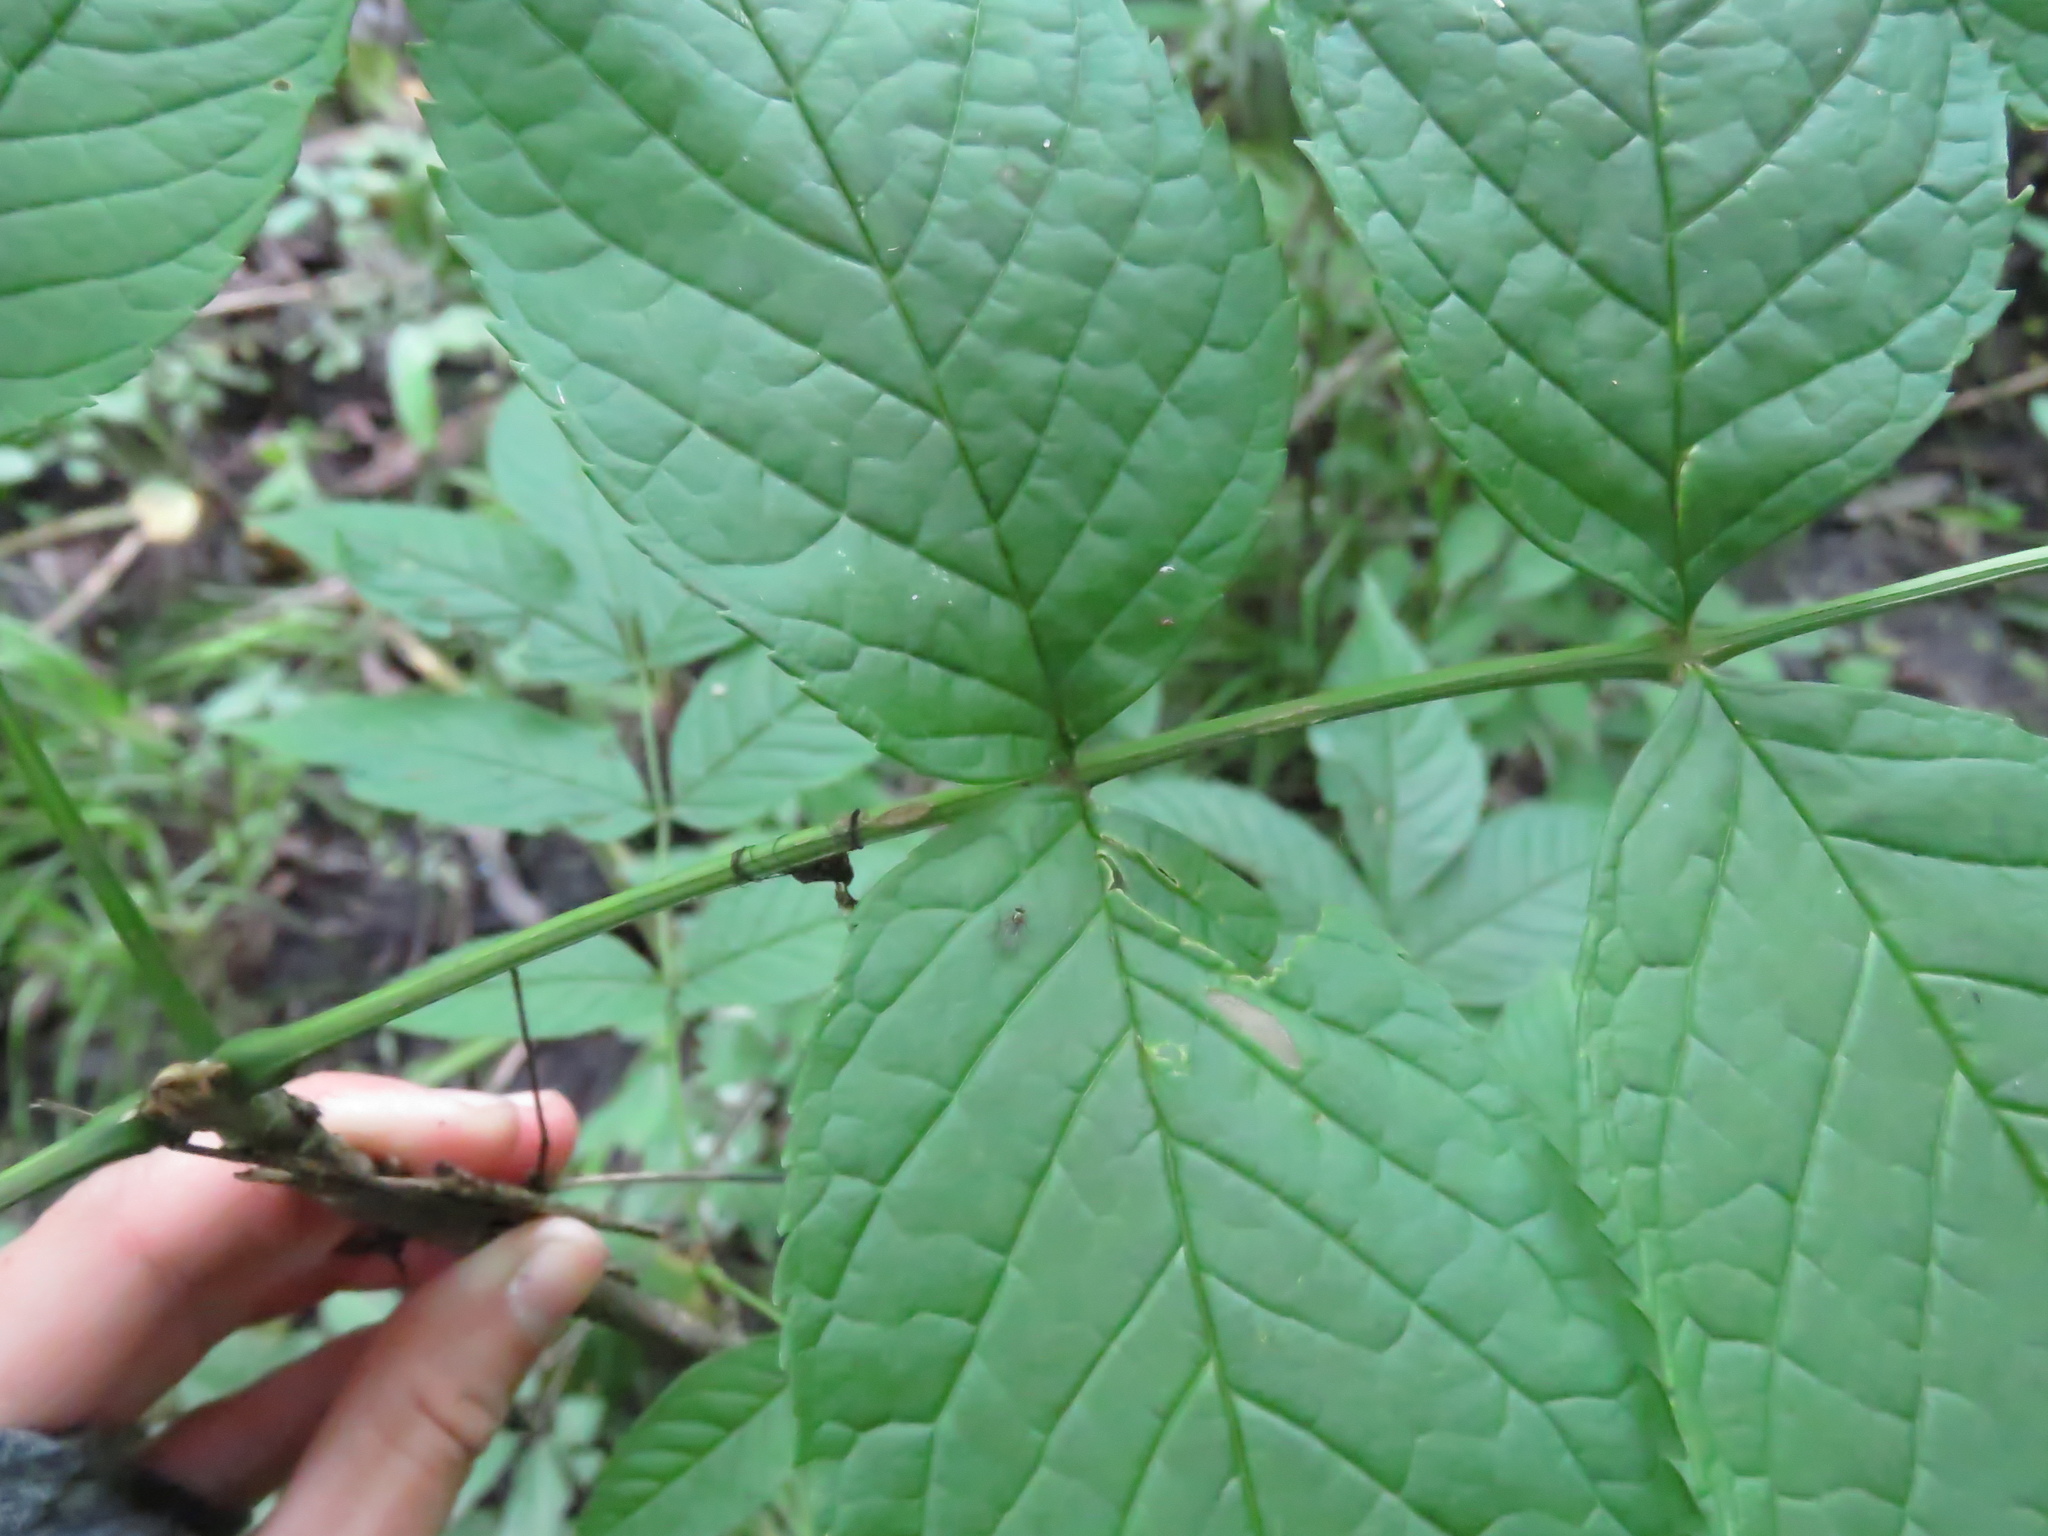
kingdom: Plantae
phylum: Tracheophyta
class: Magnoliopsida
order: Lamiales
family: Oleaceae
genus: Fraxinus
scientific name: Fraxinus nigra
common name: Black ash
